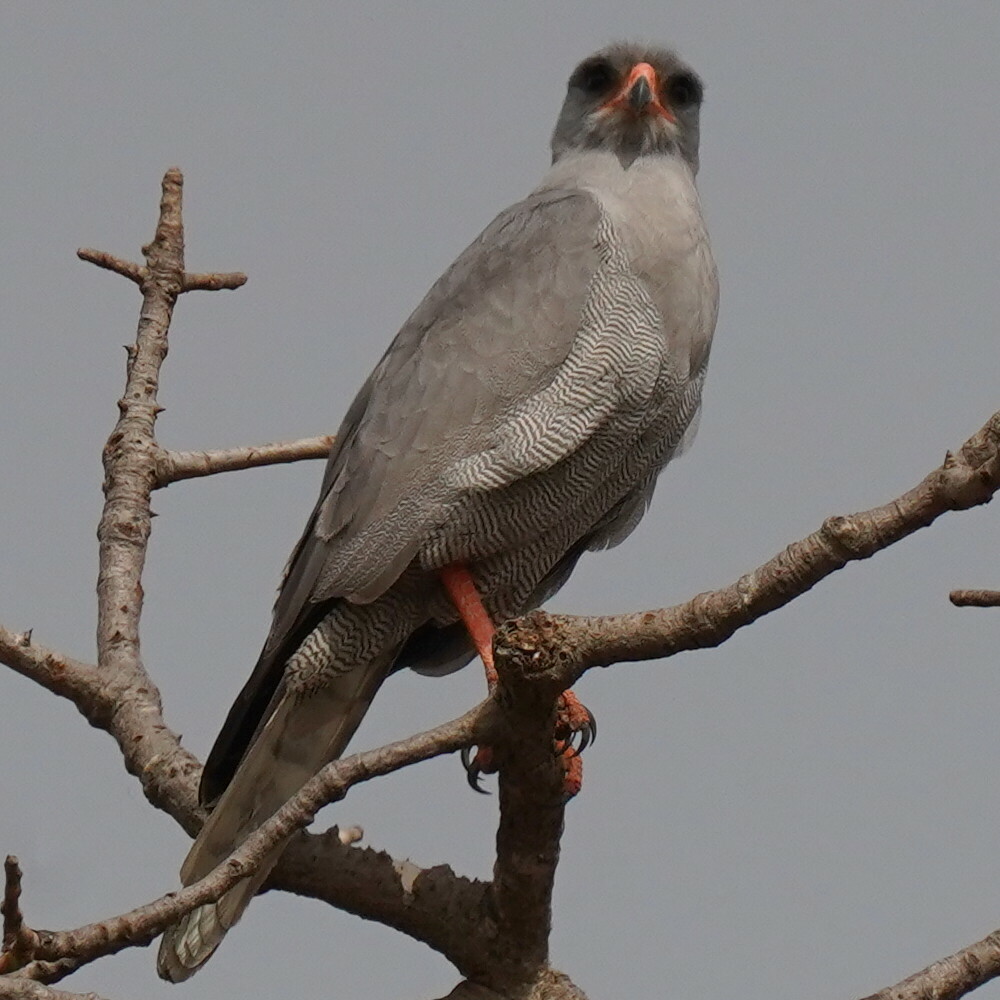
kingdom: Animalia
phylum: Chordata
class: Aves
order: Accipitriformes
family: Accipitridae
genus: Melierax
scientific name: Melierax metabates
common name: Dark chanting-goshawk
